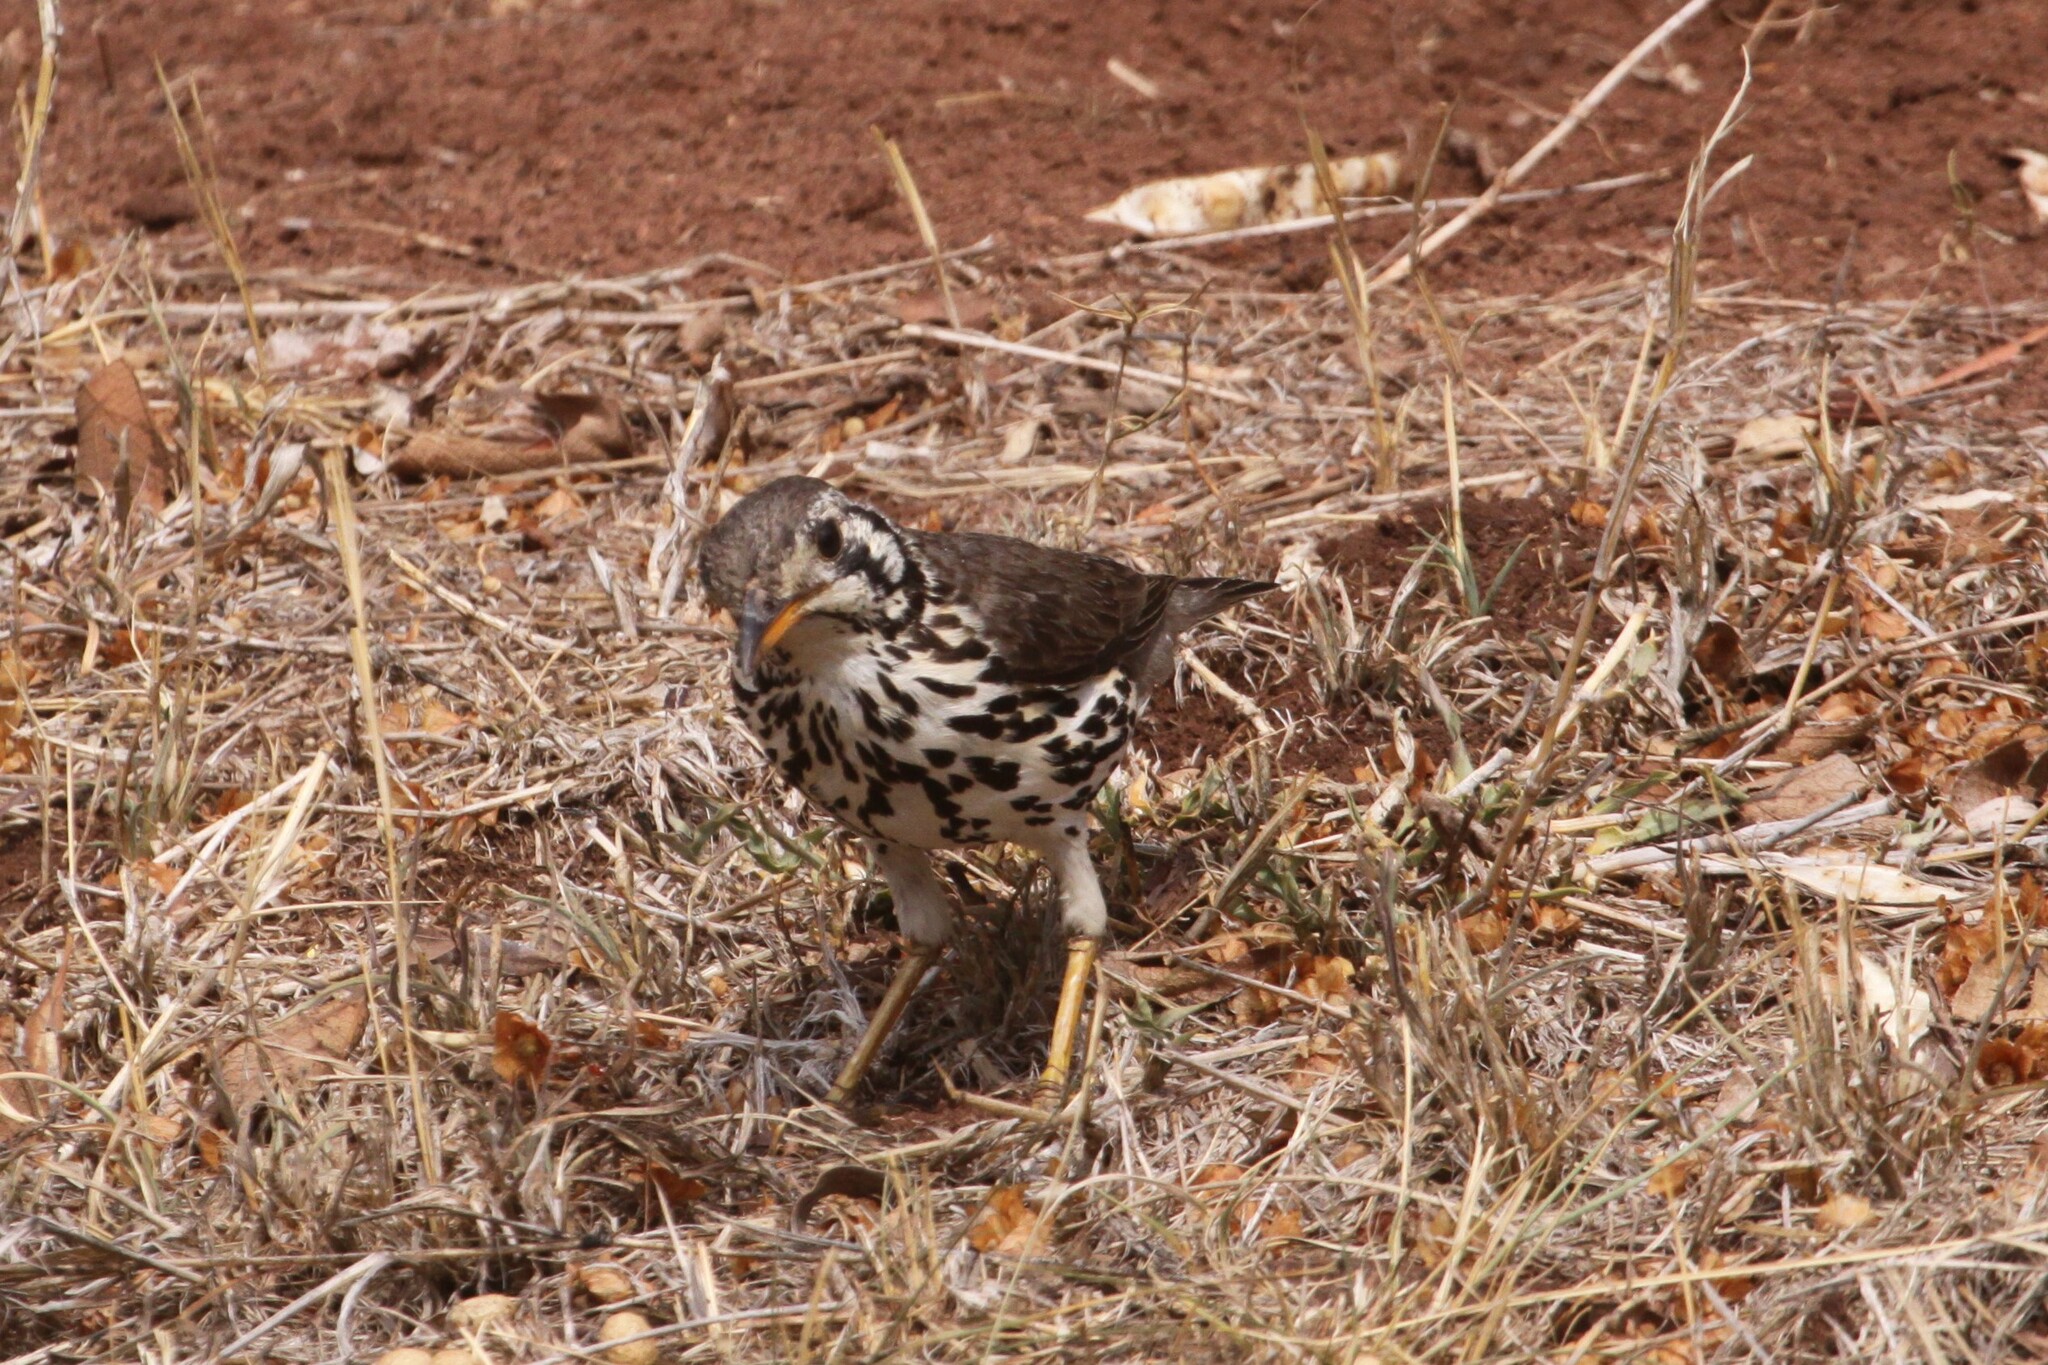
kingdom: Animalia
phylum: Chordata
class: Aves
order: Passeriformes
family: Turdidae
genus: Psophocichla
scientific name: Psophocichla litsitsirupa
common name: Groundscraper thrush
